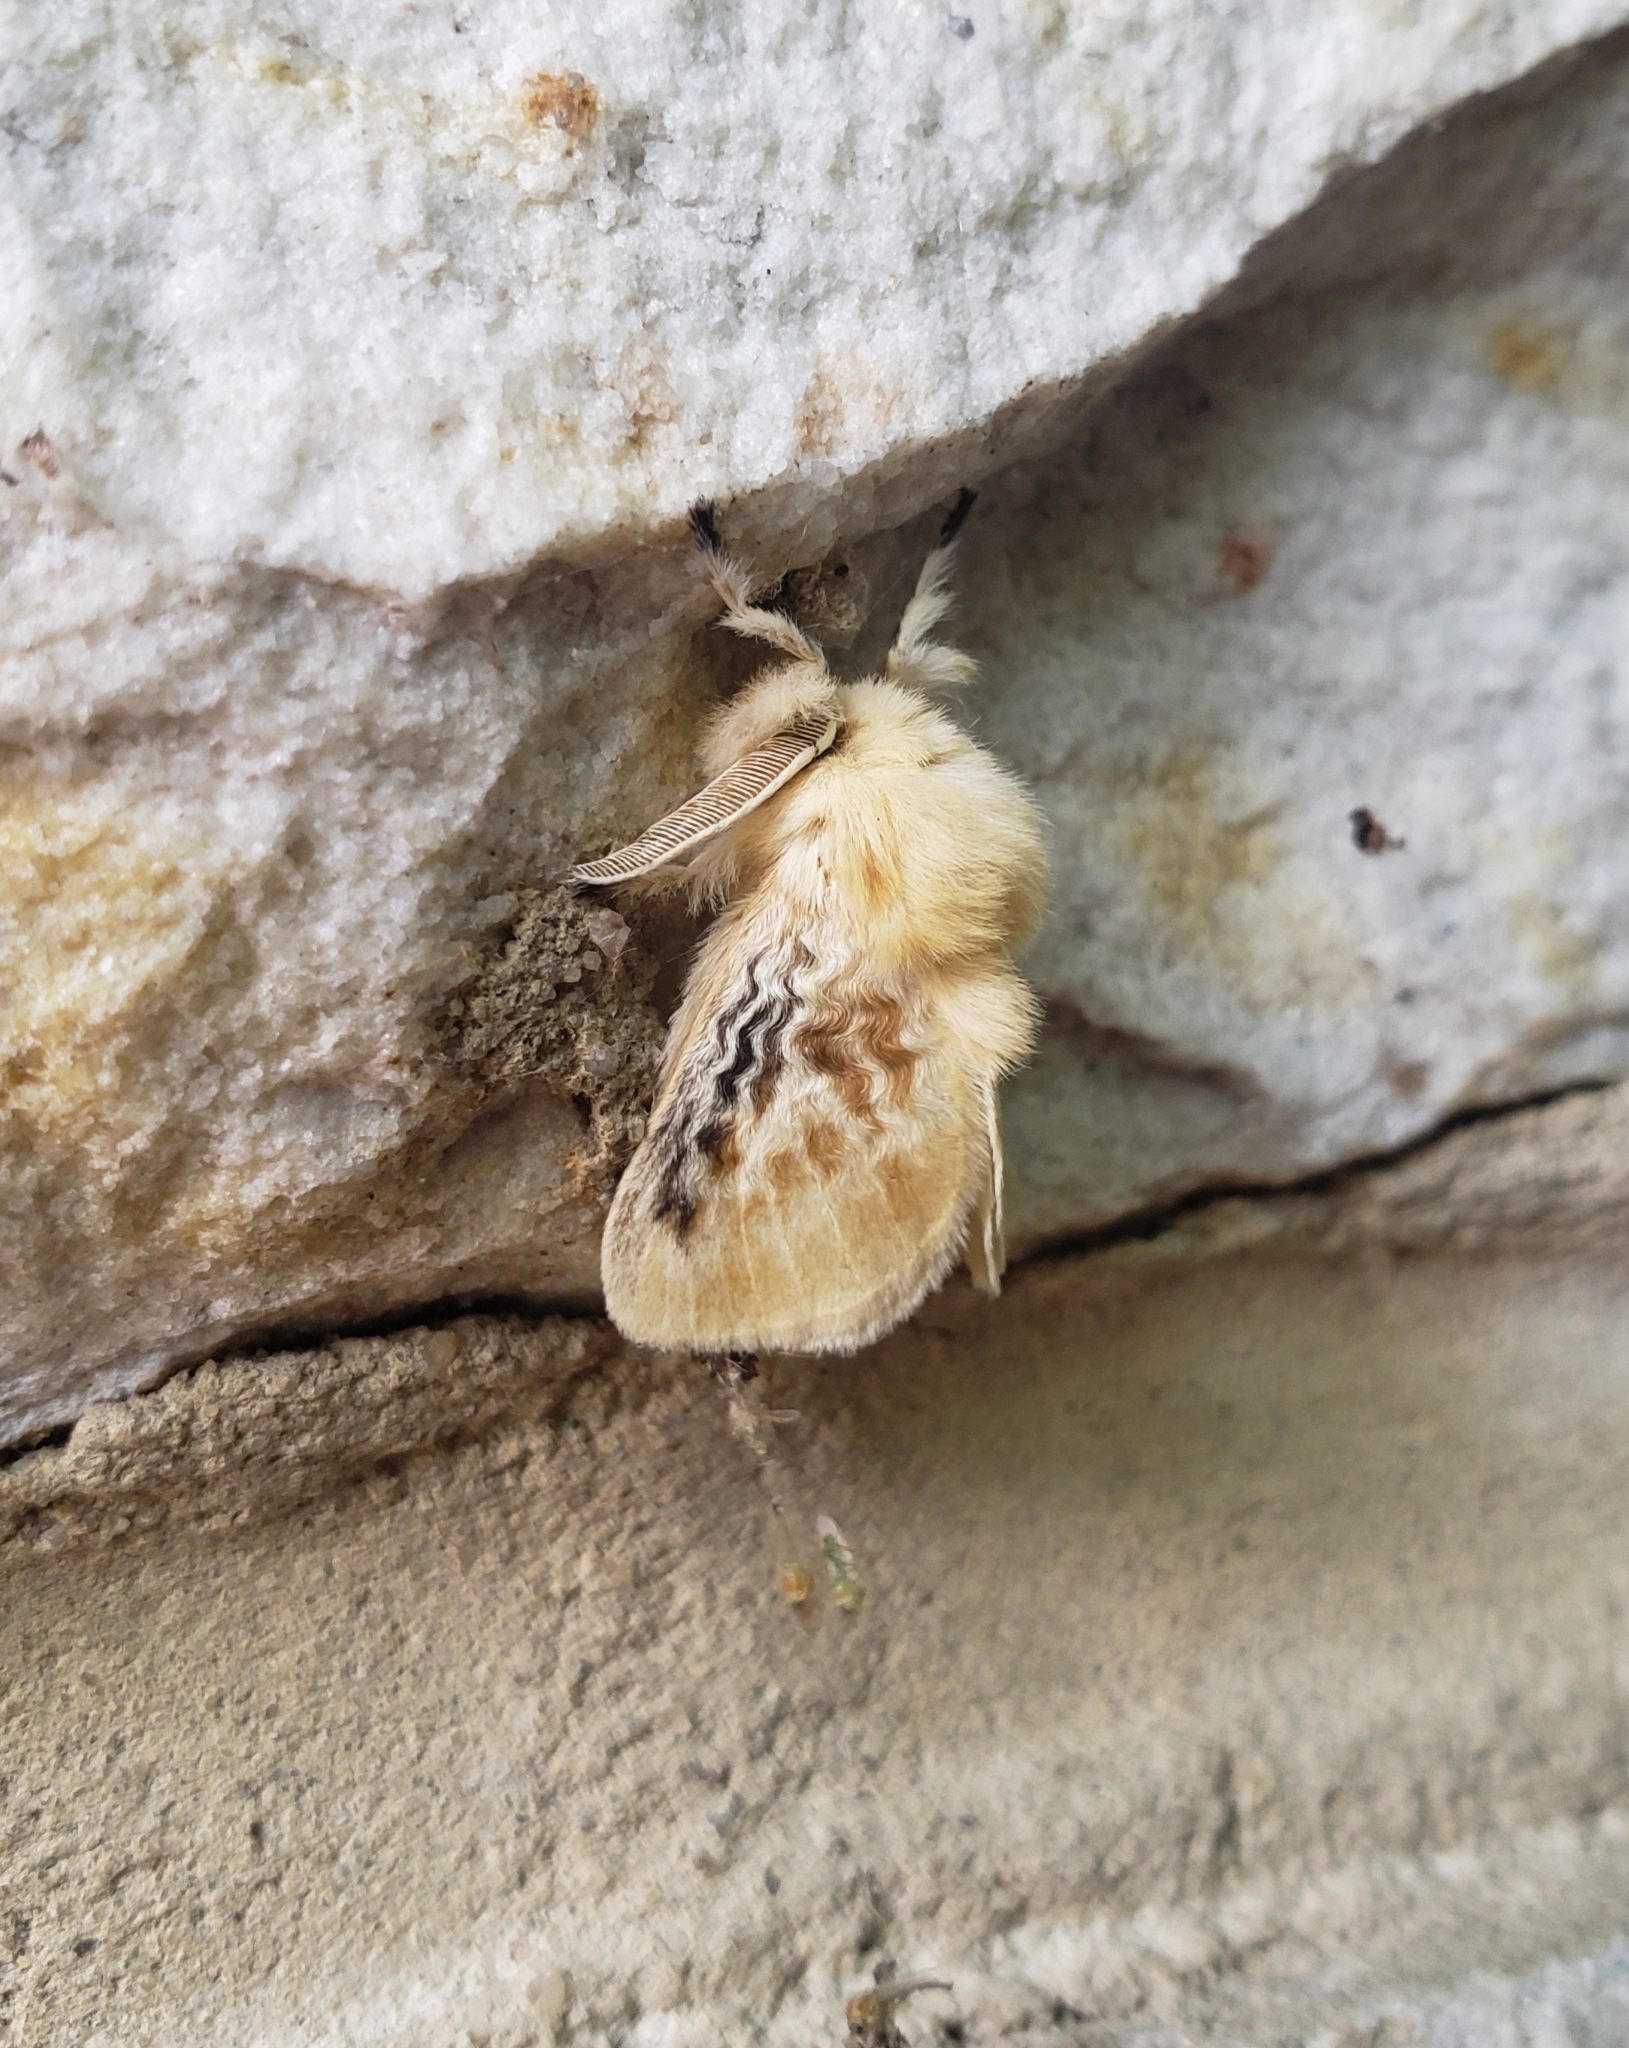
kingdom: Animalia
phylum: Arthropoda
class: Insecta
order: Lepidoptera
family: Megalopygidae
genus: Megalopyge
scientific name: Megalopyge crispata
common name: Black-waved flannel moth
